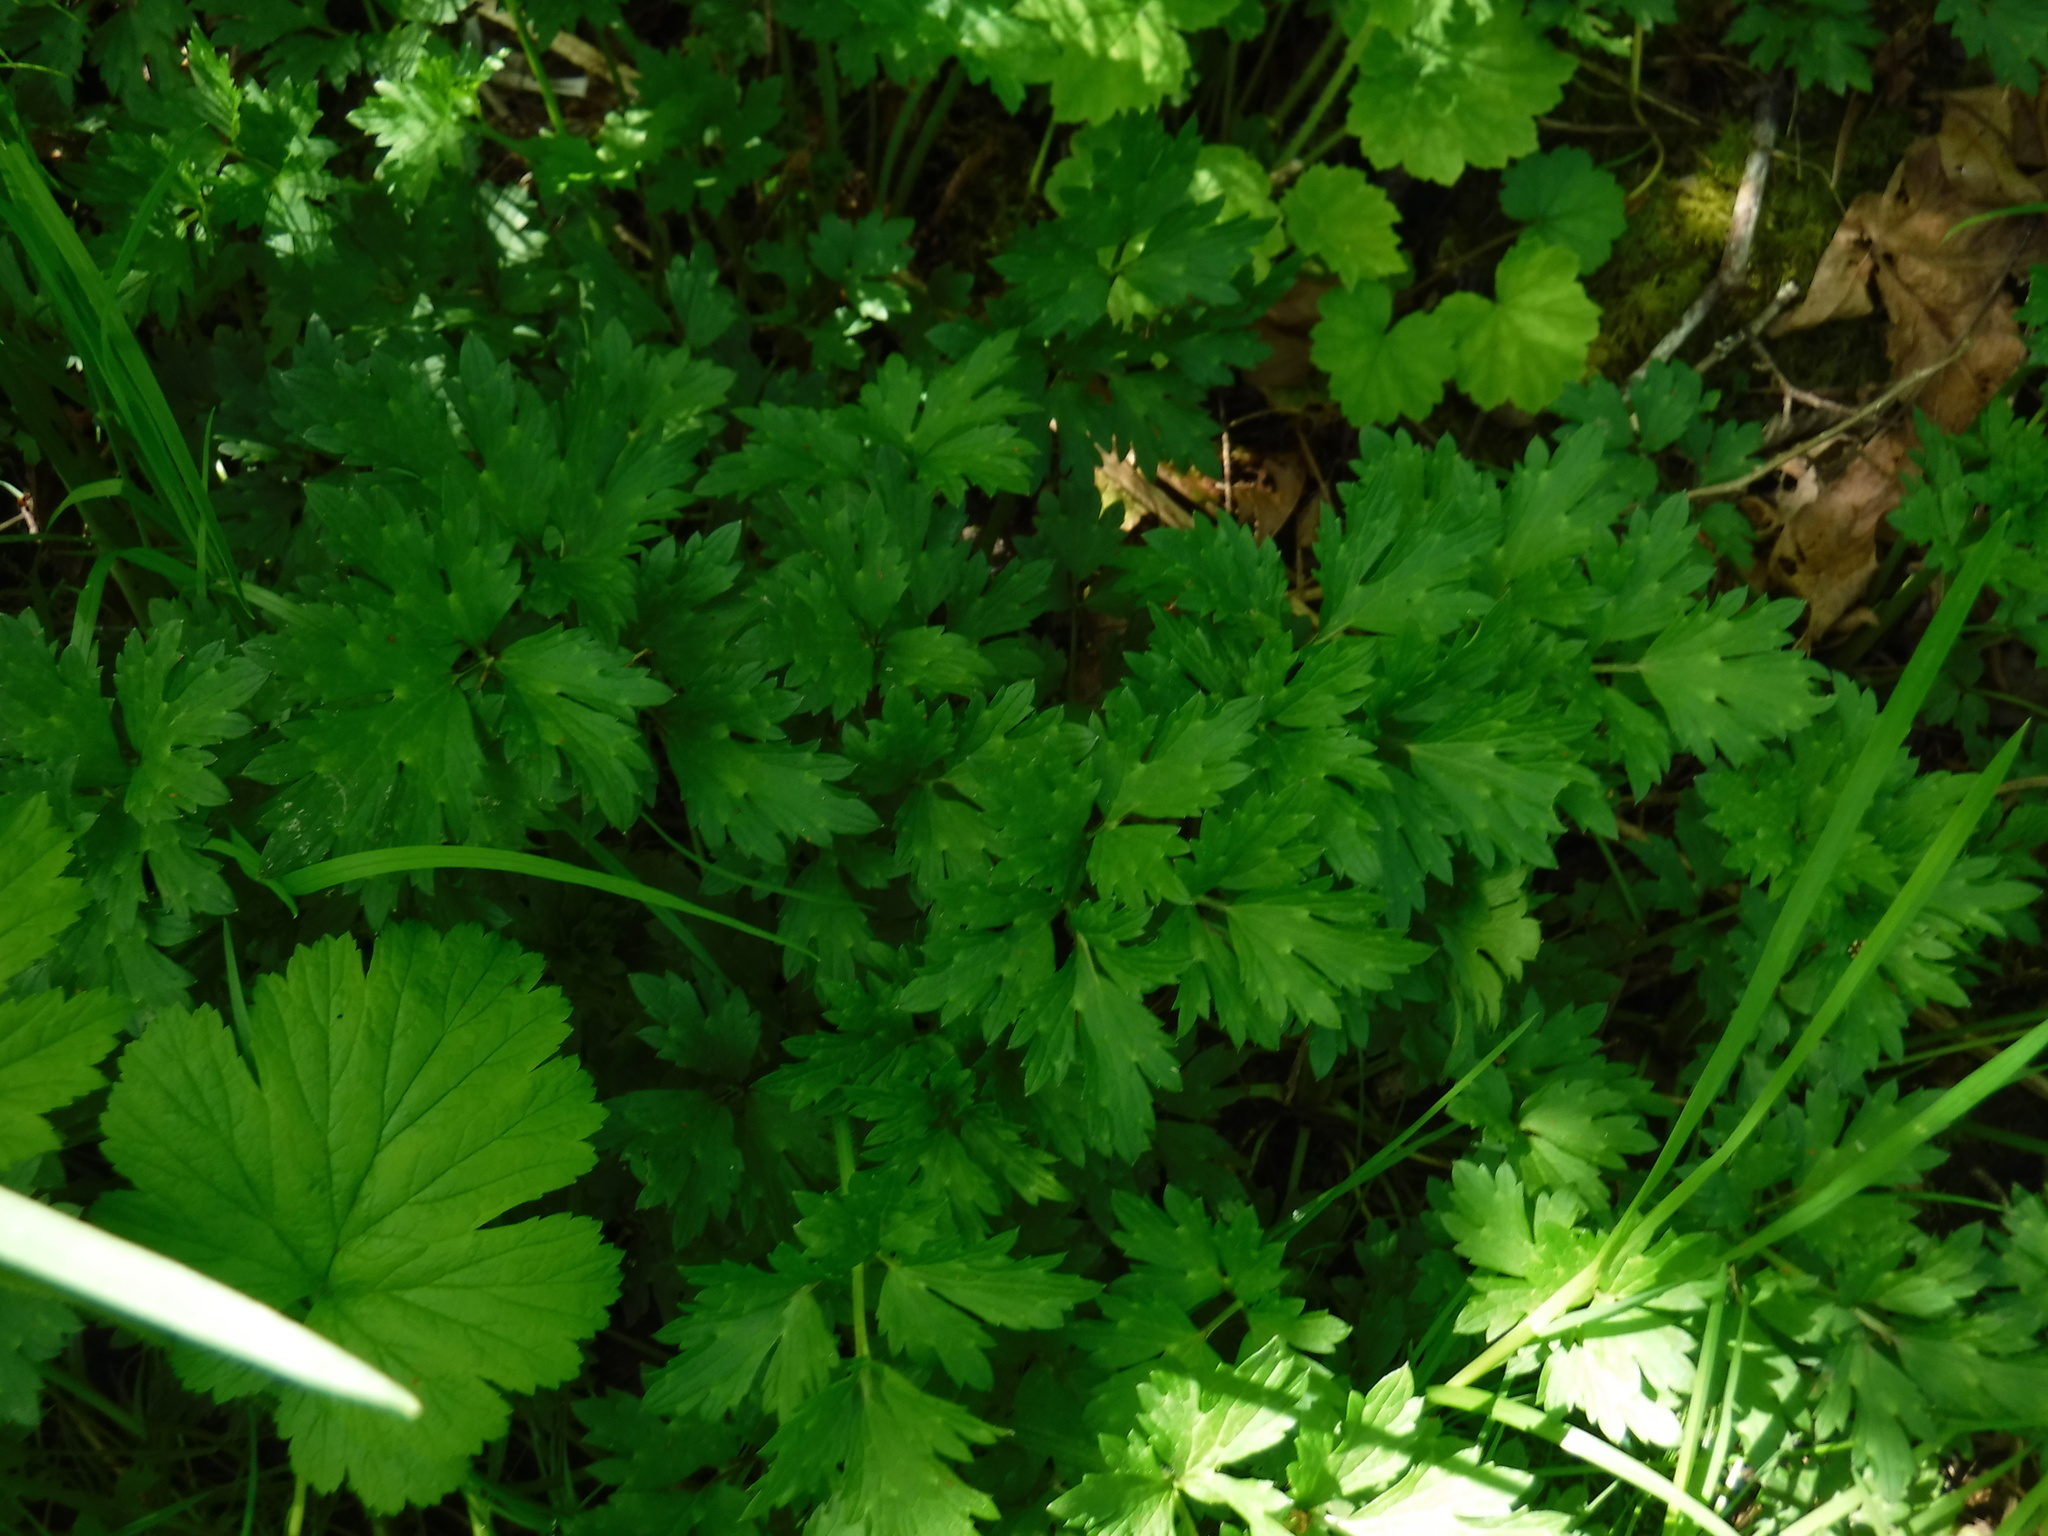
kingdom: Plantae
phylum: Tracheophyta
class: Magnoliopsida
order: Ranunculales
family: Ranunculaceae
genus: Ranunculus
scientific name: Ranunculus repens
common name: Creeping buttercup
